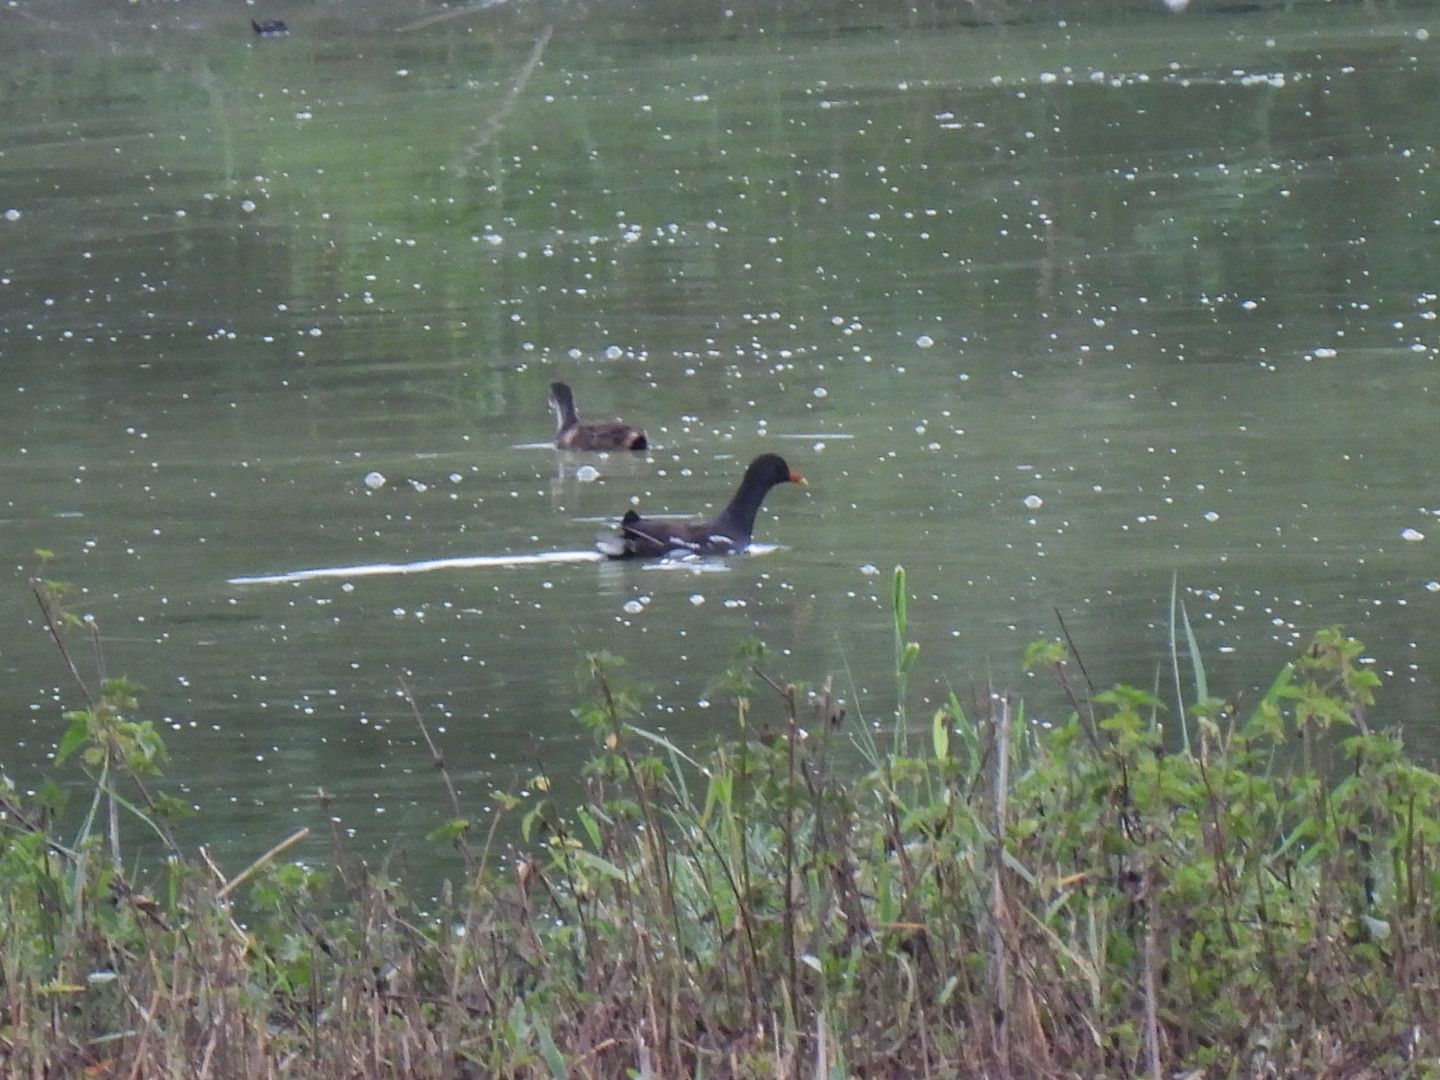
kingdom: Animalia
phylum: Chordata
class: Aves
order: Gruiformes
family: Rallidae
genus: Gallinula
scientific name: Gallinula chloropus
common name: Common moorhen
